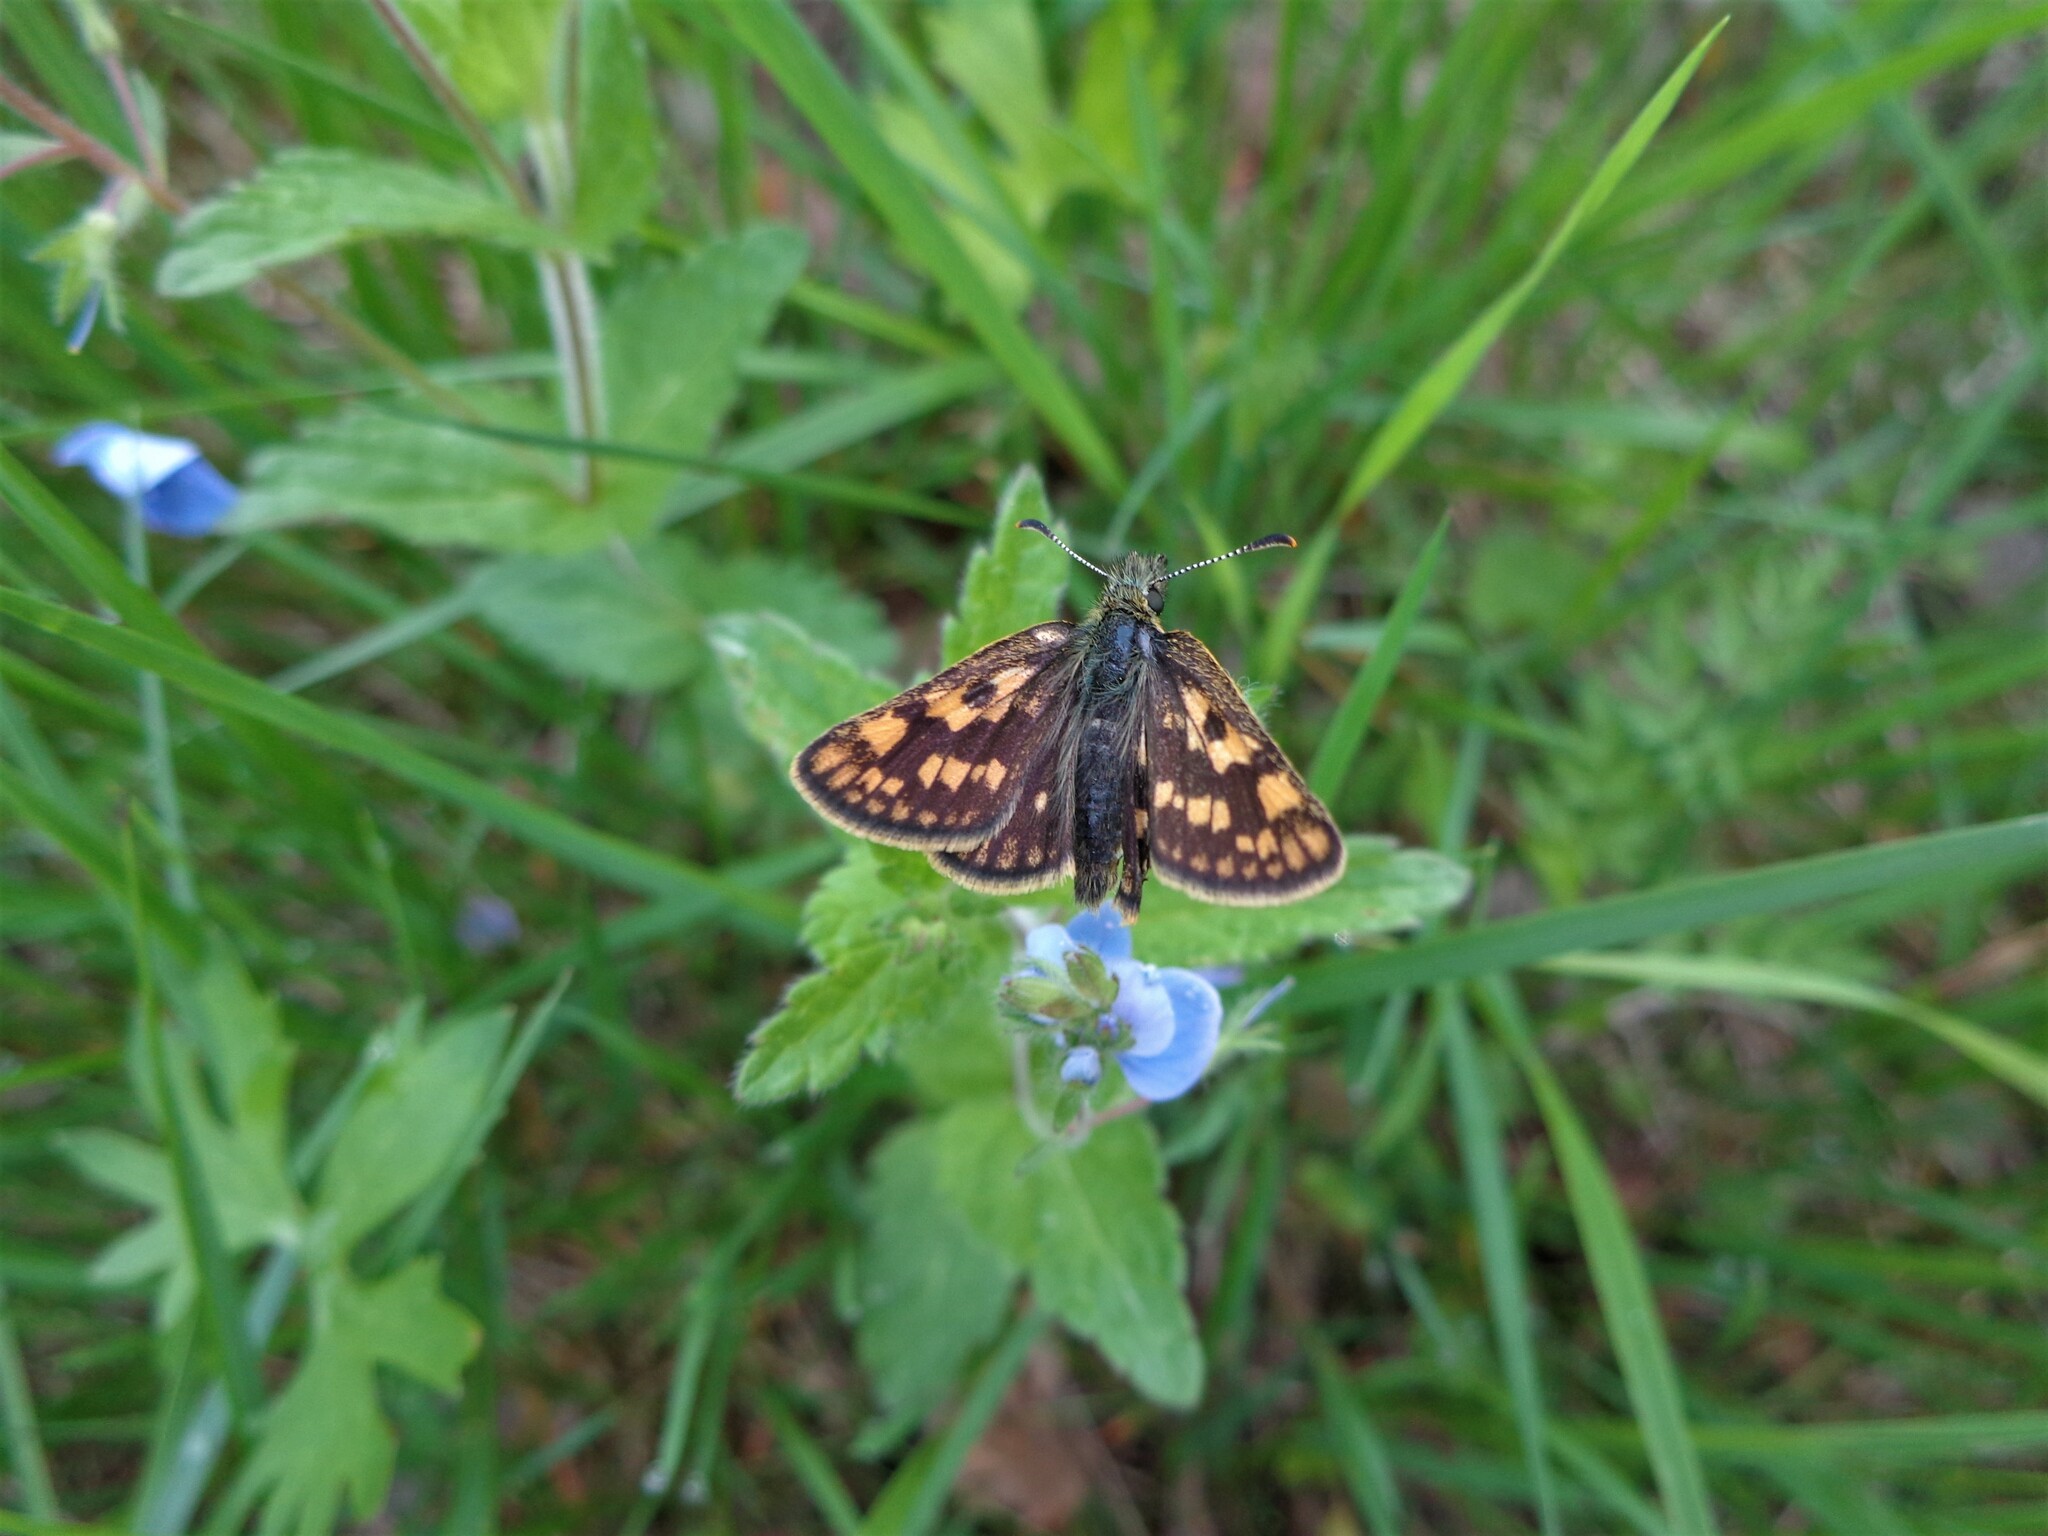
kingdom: Animalia
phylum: Arthropoda
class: Insecta
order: Lepidoptera
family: Hesperiidae
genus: Carterocephalus
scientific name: Carterocephalus palaemon
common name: Chequered skipper
